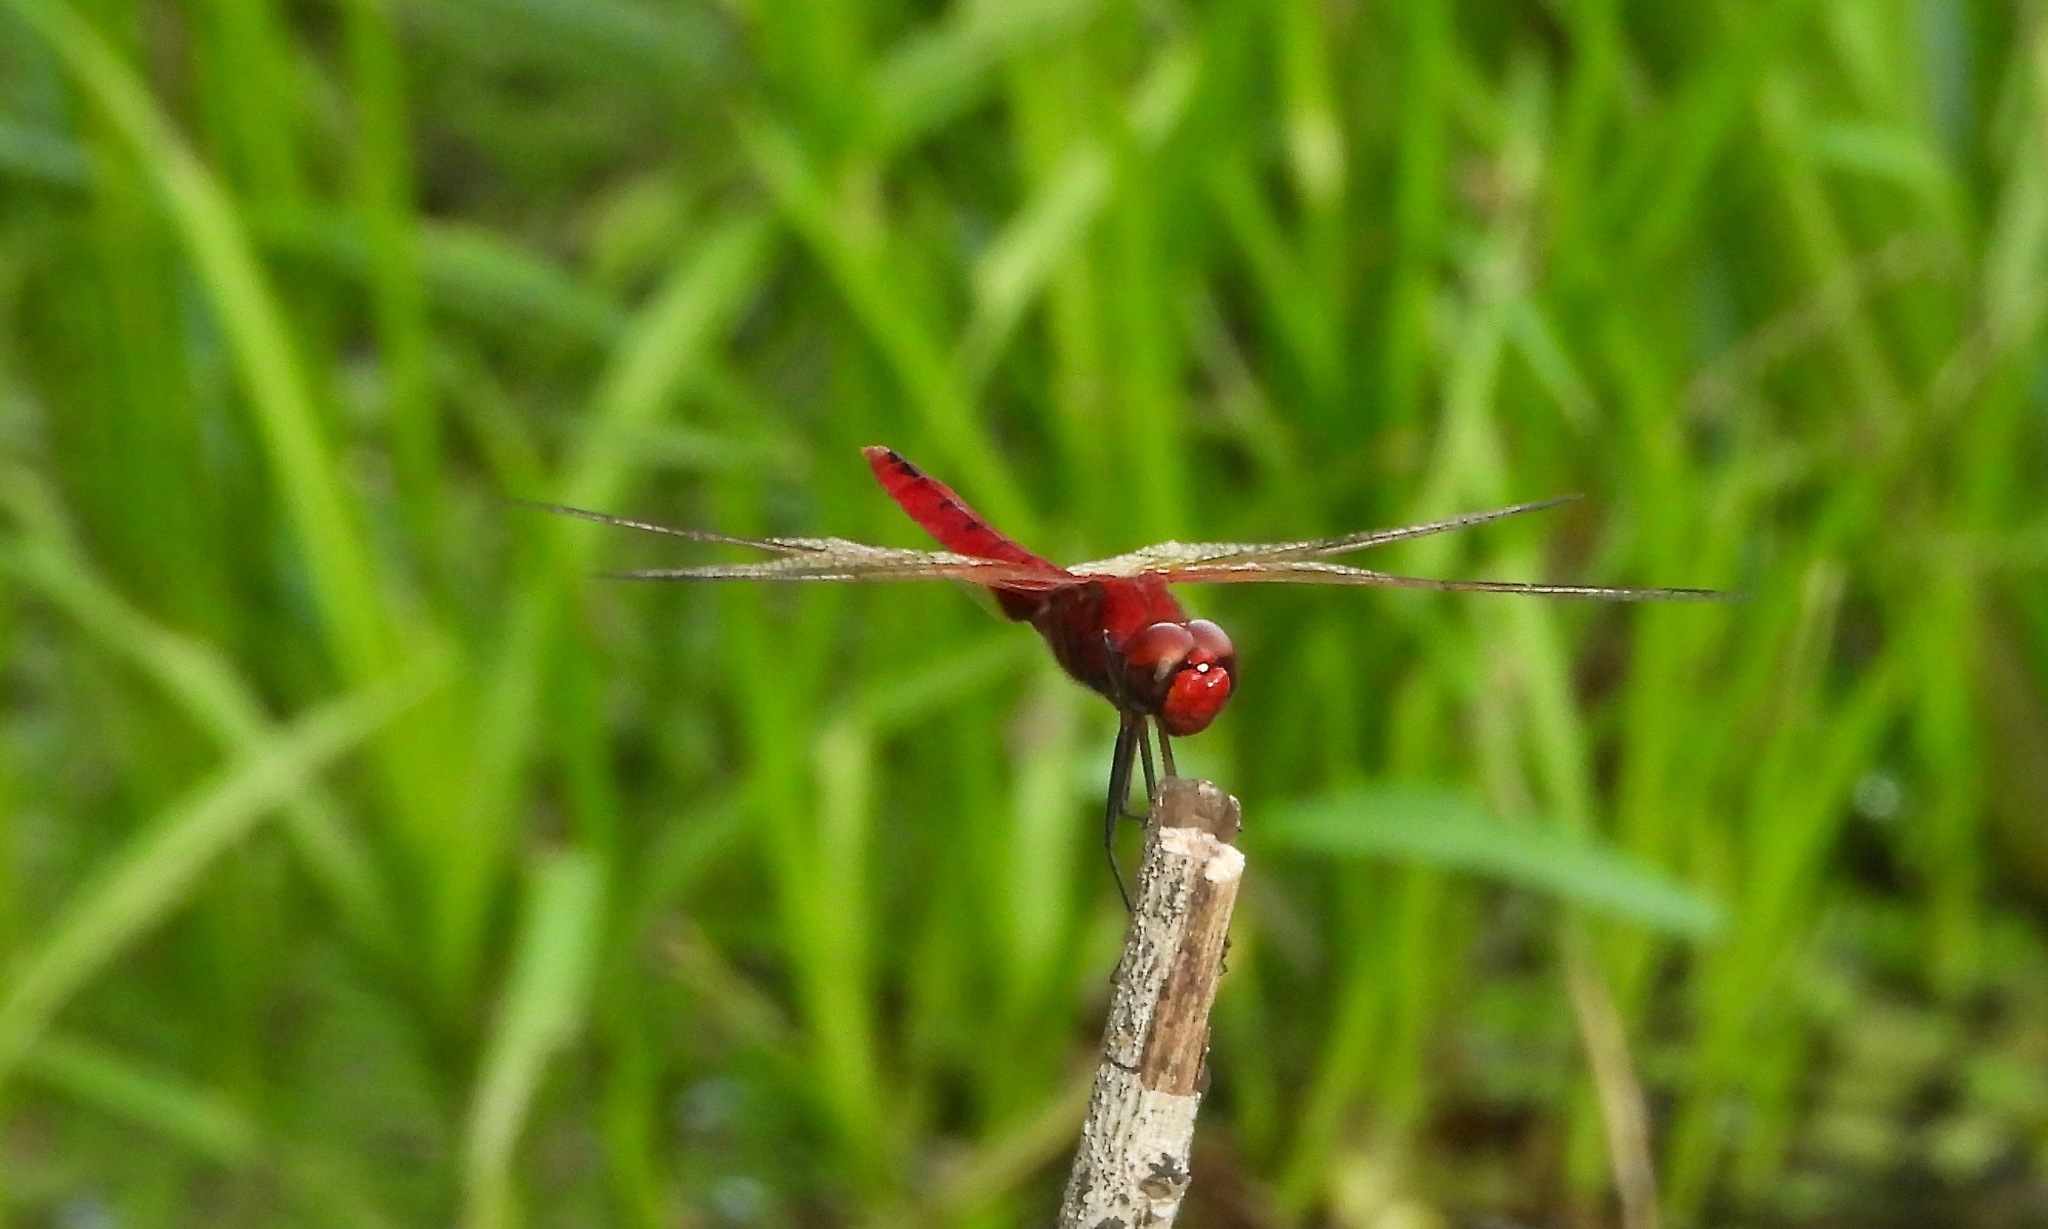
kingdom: Animalia
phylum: Arthropoda
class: Insecta
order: Odonata
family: Libellulidae
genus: Urothemis
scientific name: Urothemis signata
